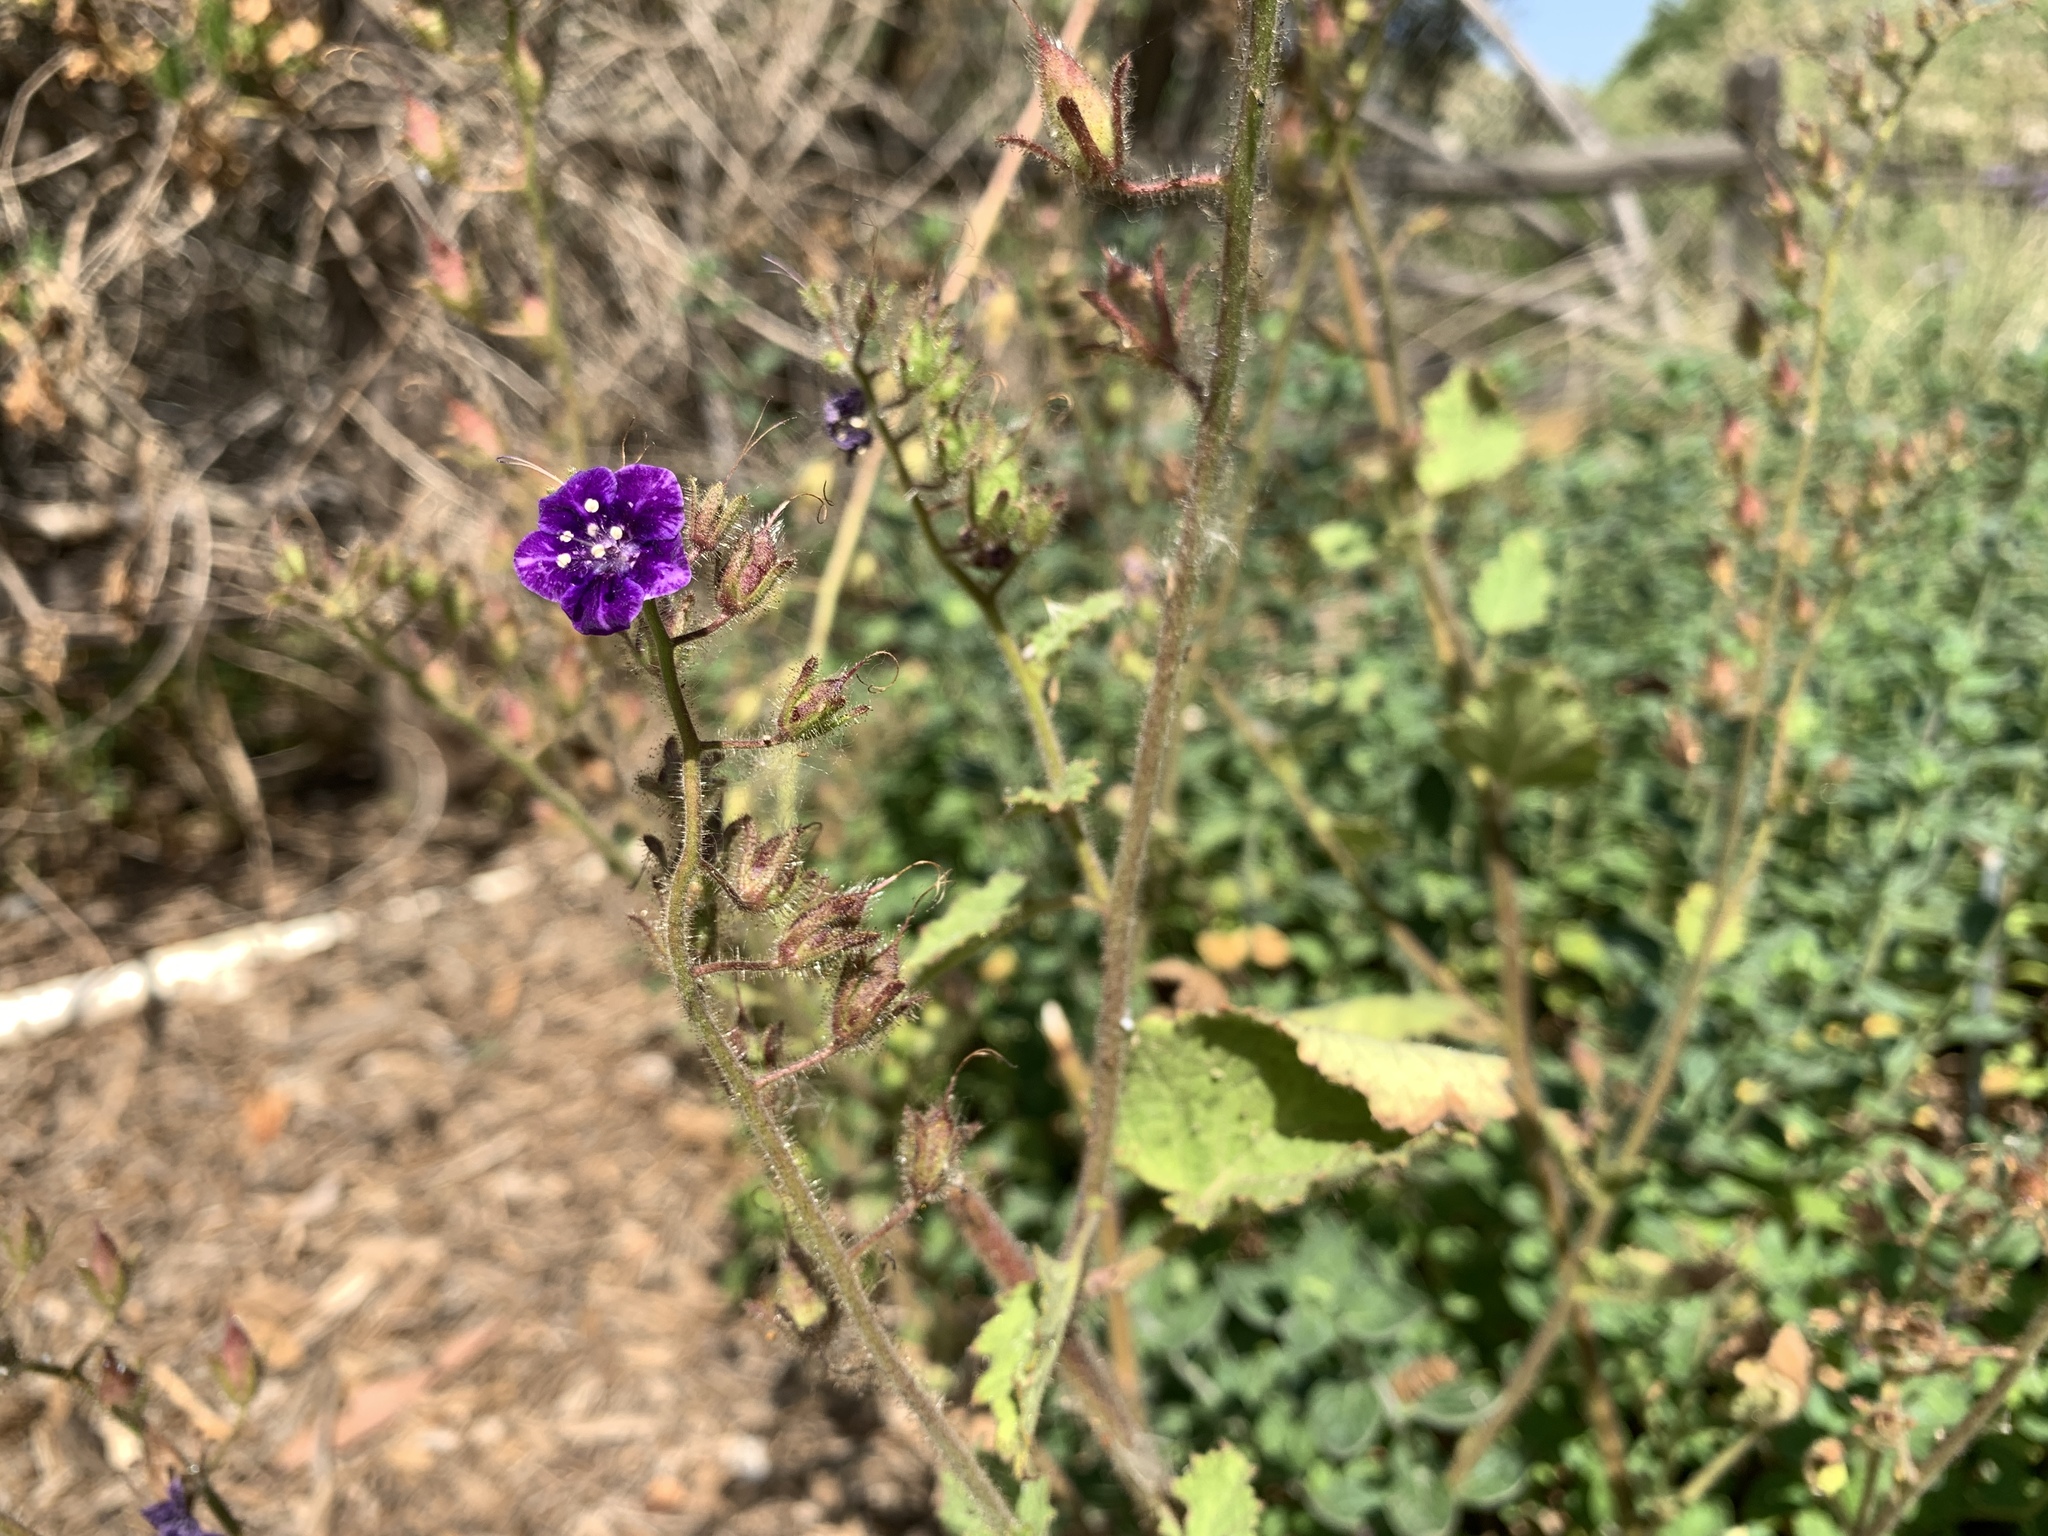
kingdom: Plantae
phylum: Tracheophyta
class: Magnoliopsida
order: Boraginales
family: Hydrophyllaceae
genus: Phacelia
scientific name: Phacelia parryi
